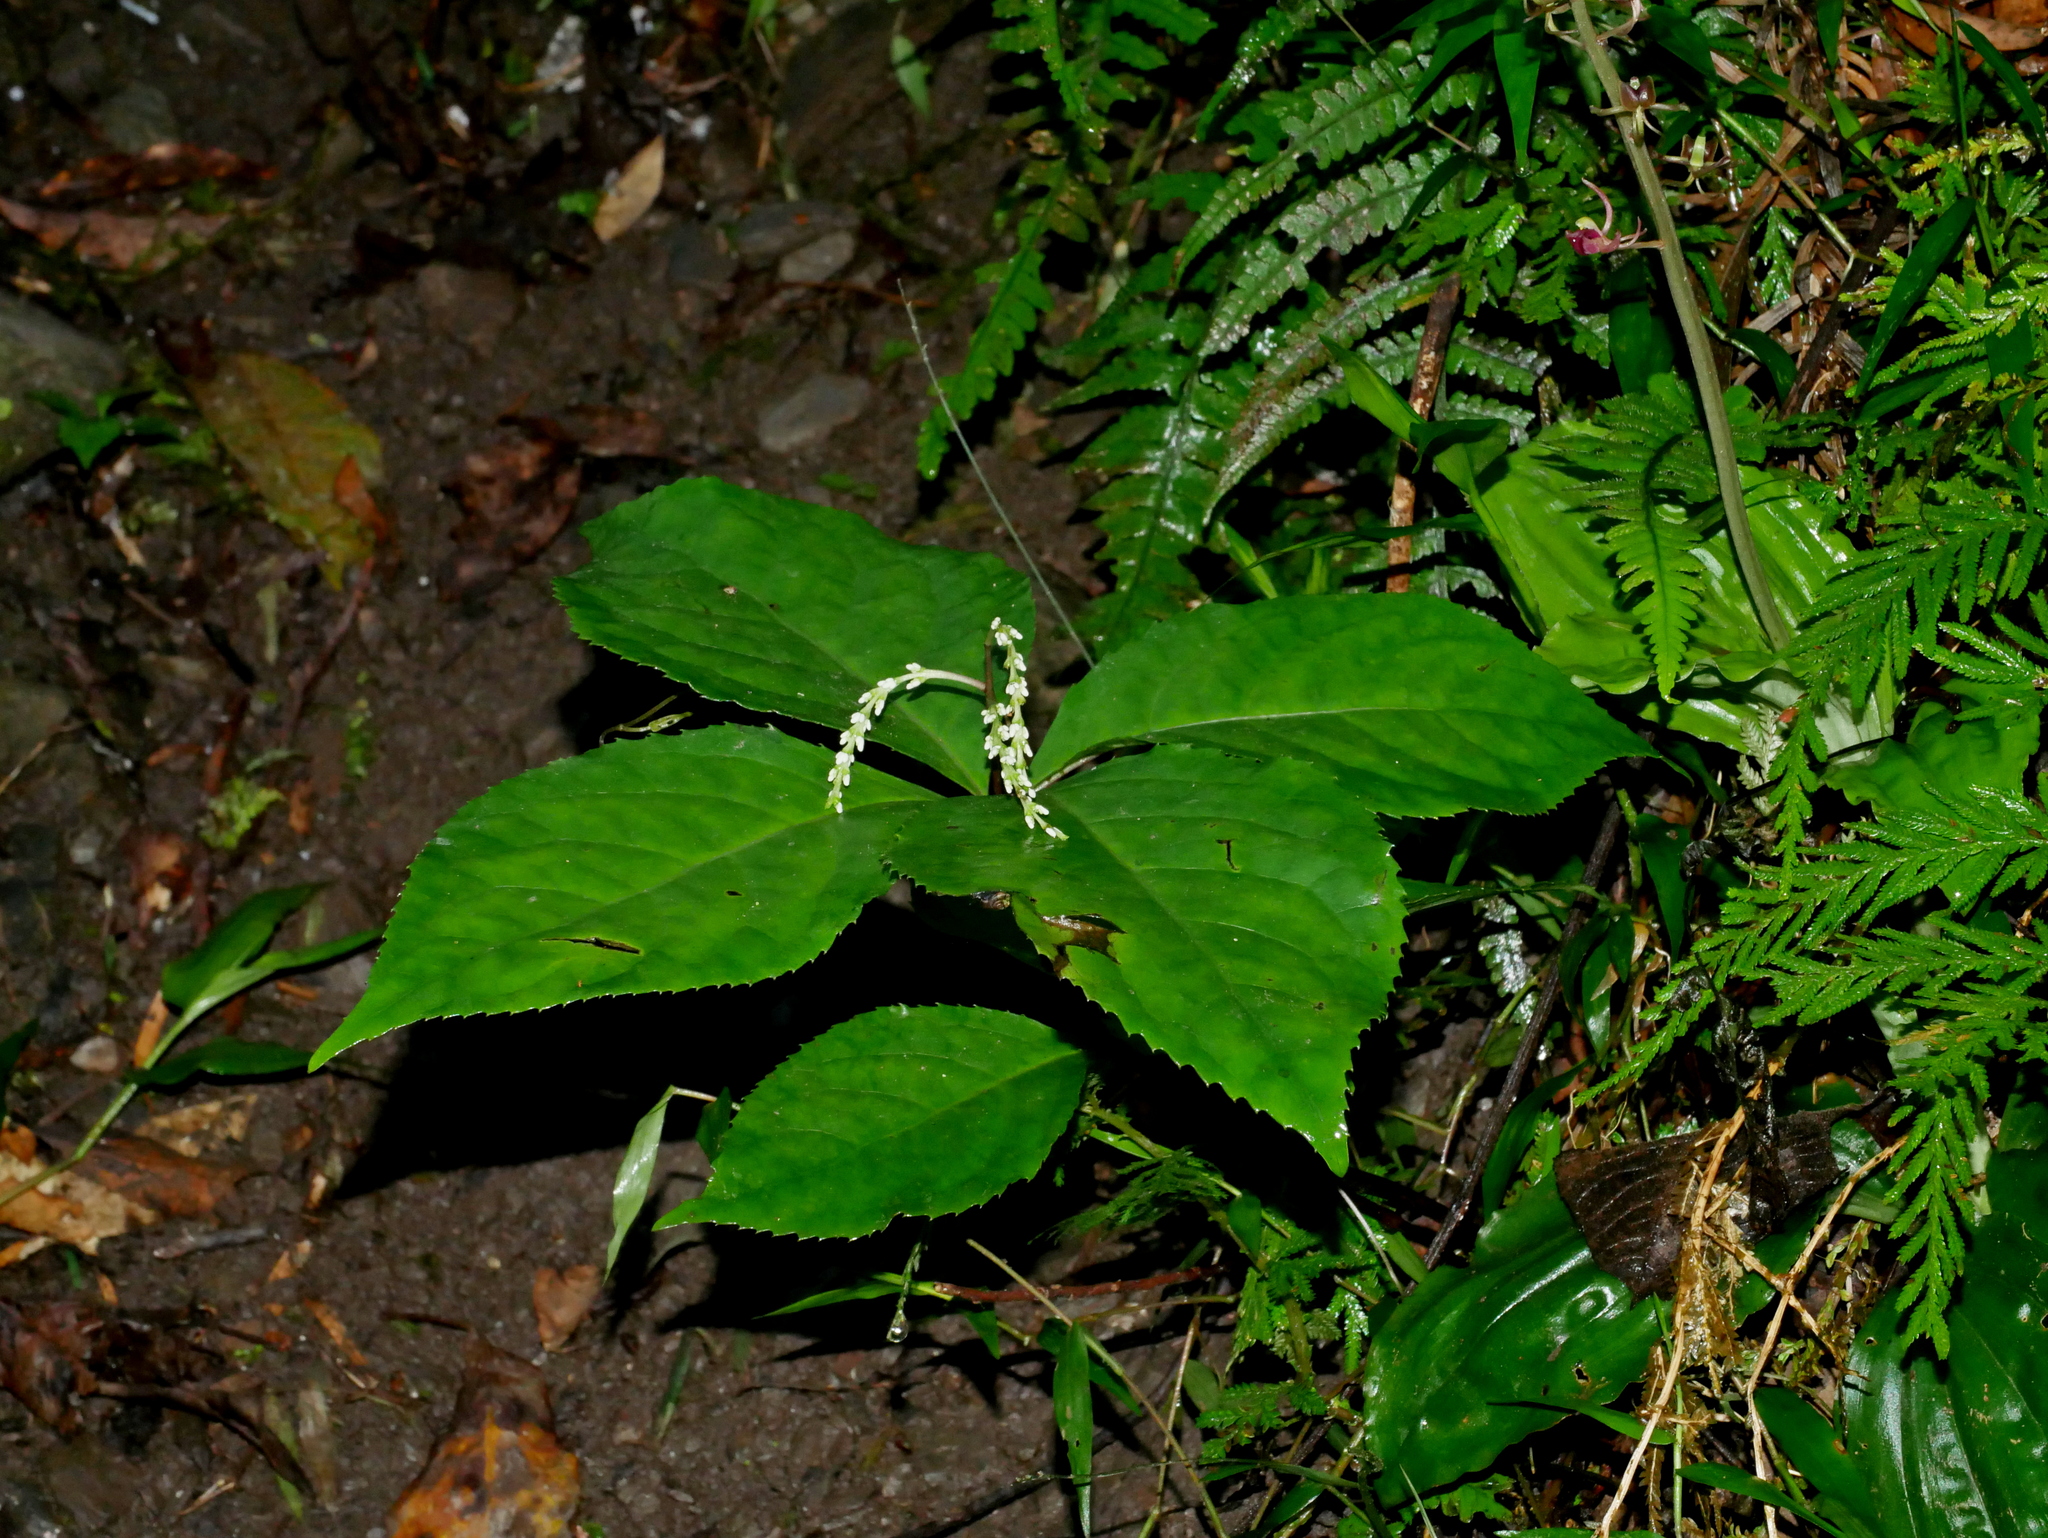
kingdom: Plantae
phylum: Tracheophyta
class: Magnoliopsida
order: Chloranthales
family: Chloranthaceae
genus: Chloranthus
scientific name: Chloranthus oldhamii
